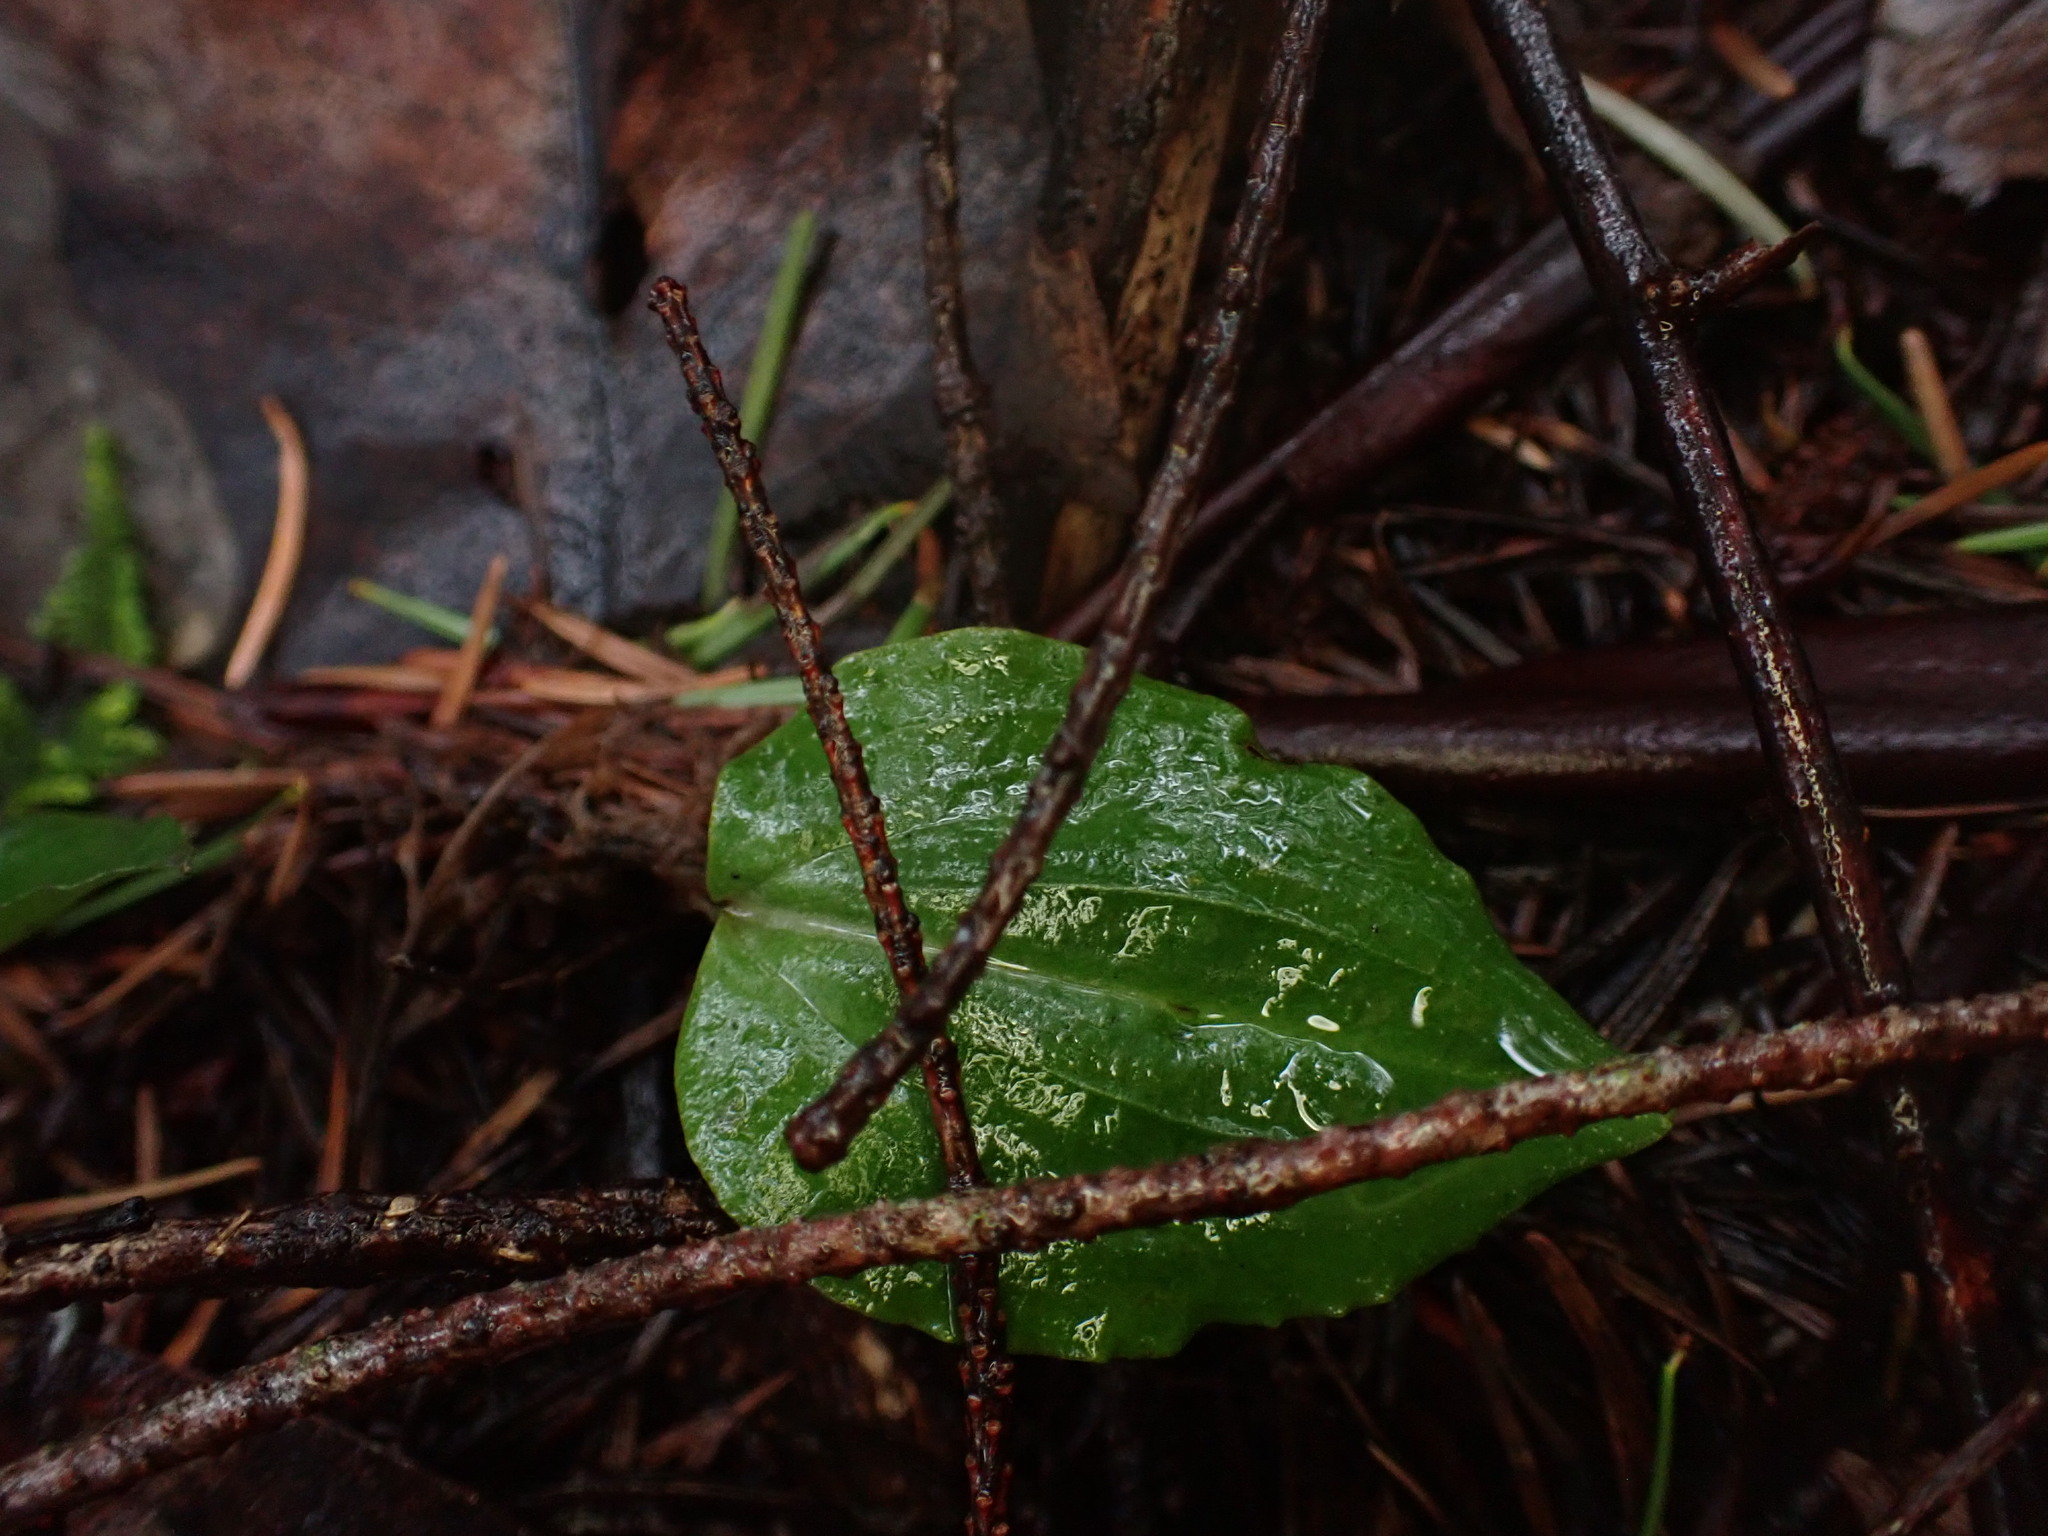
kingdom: Plantae
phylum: Tracheophyta
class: Liliopsida
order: Asparagales
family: Orchidaceae
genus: Calypso
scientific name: Calypso bulbosa
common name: Calypso
